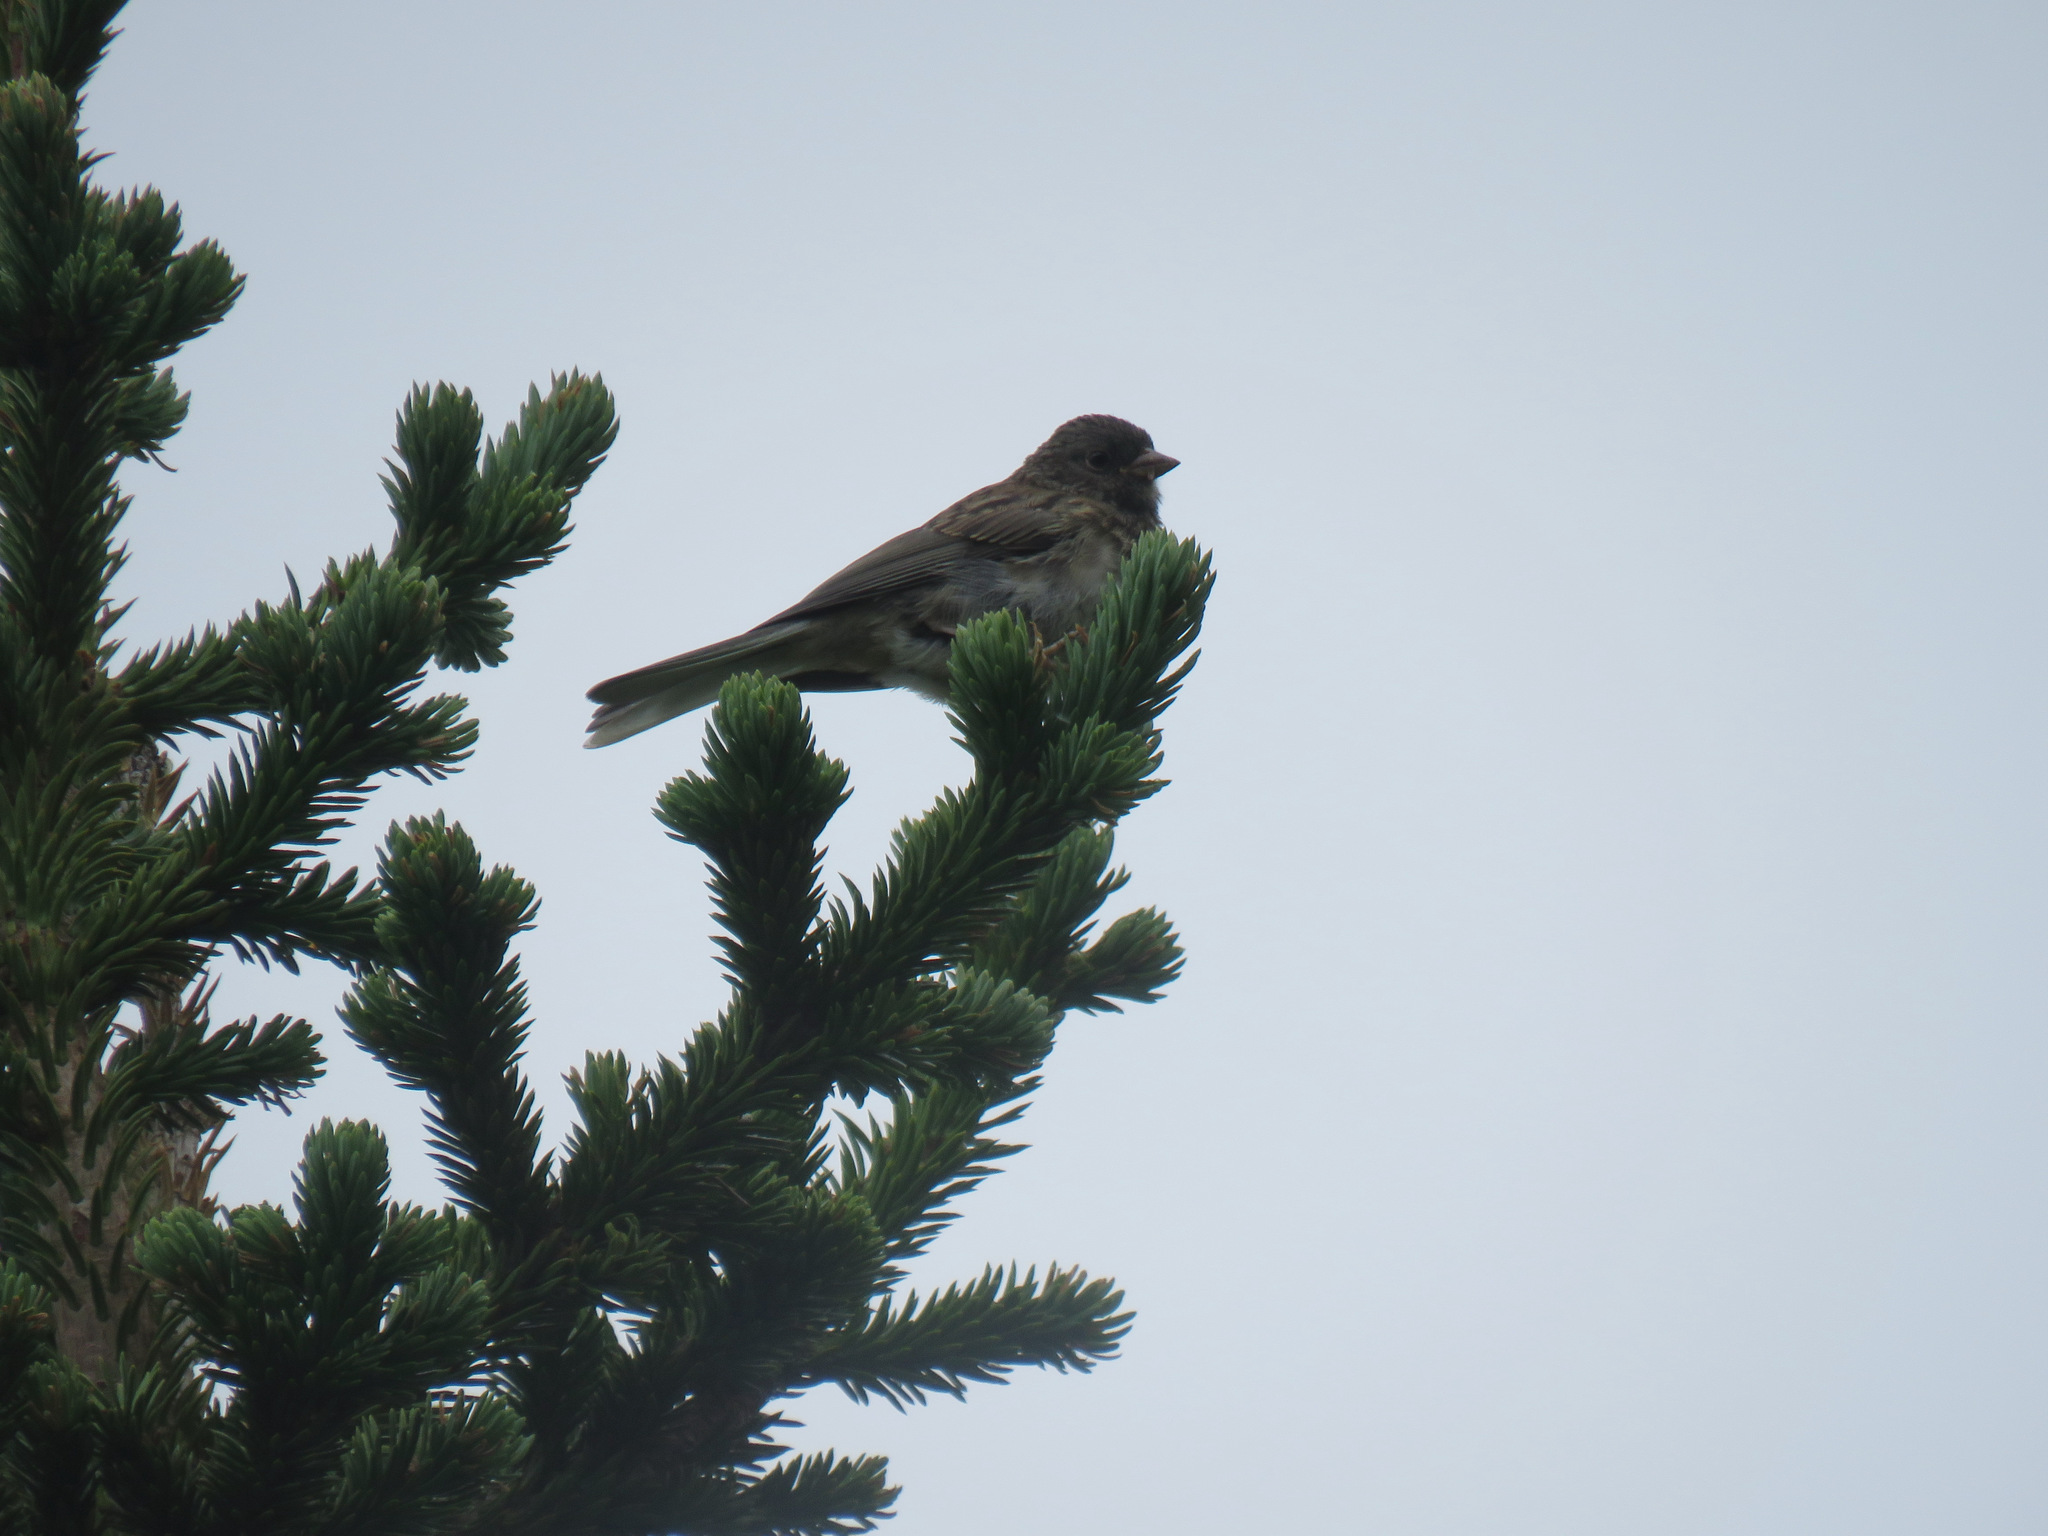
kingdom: Animalia
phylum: Chordata
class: Aves
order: Passeriformes
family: Passerellidae
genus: Junco
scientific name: Junco hyemalis
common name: Dark-eyed junco
